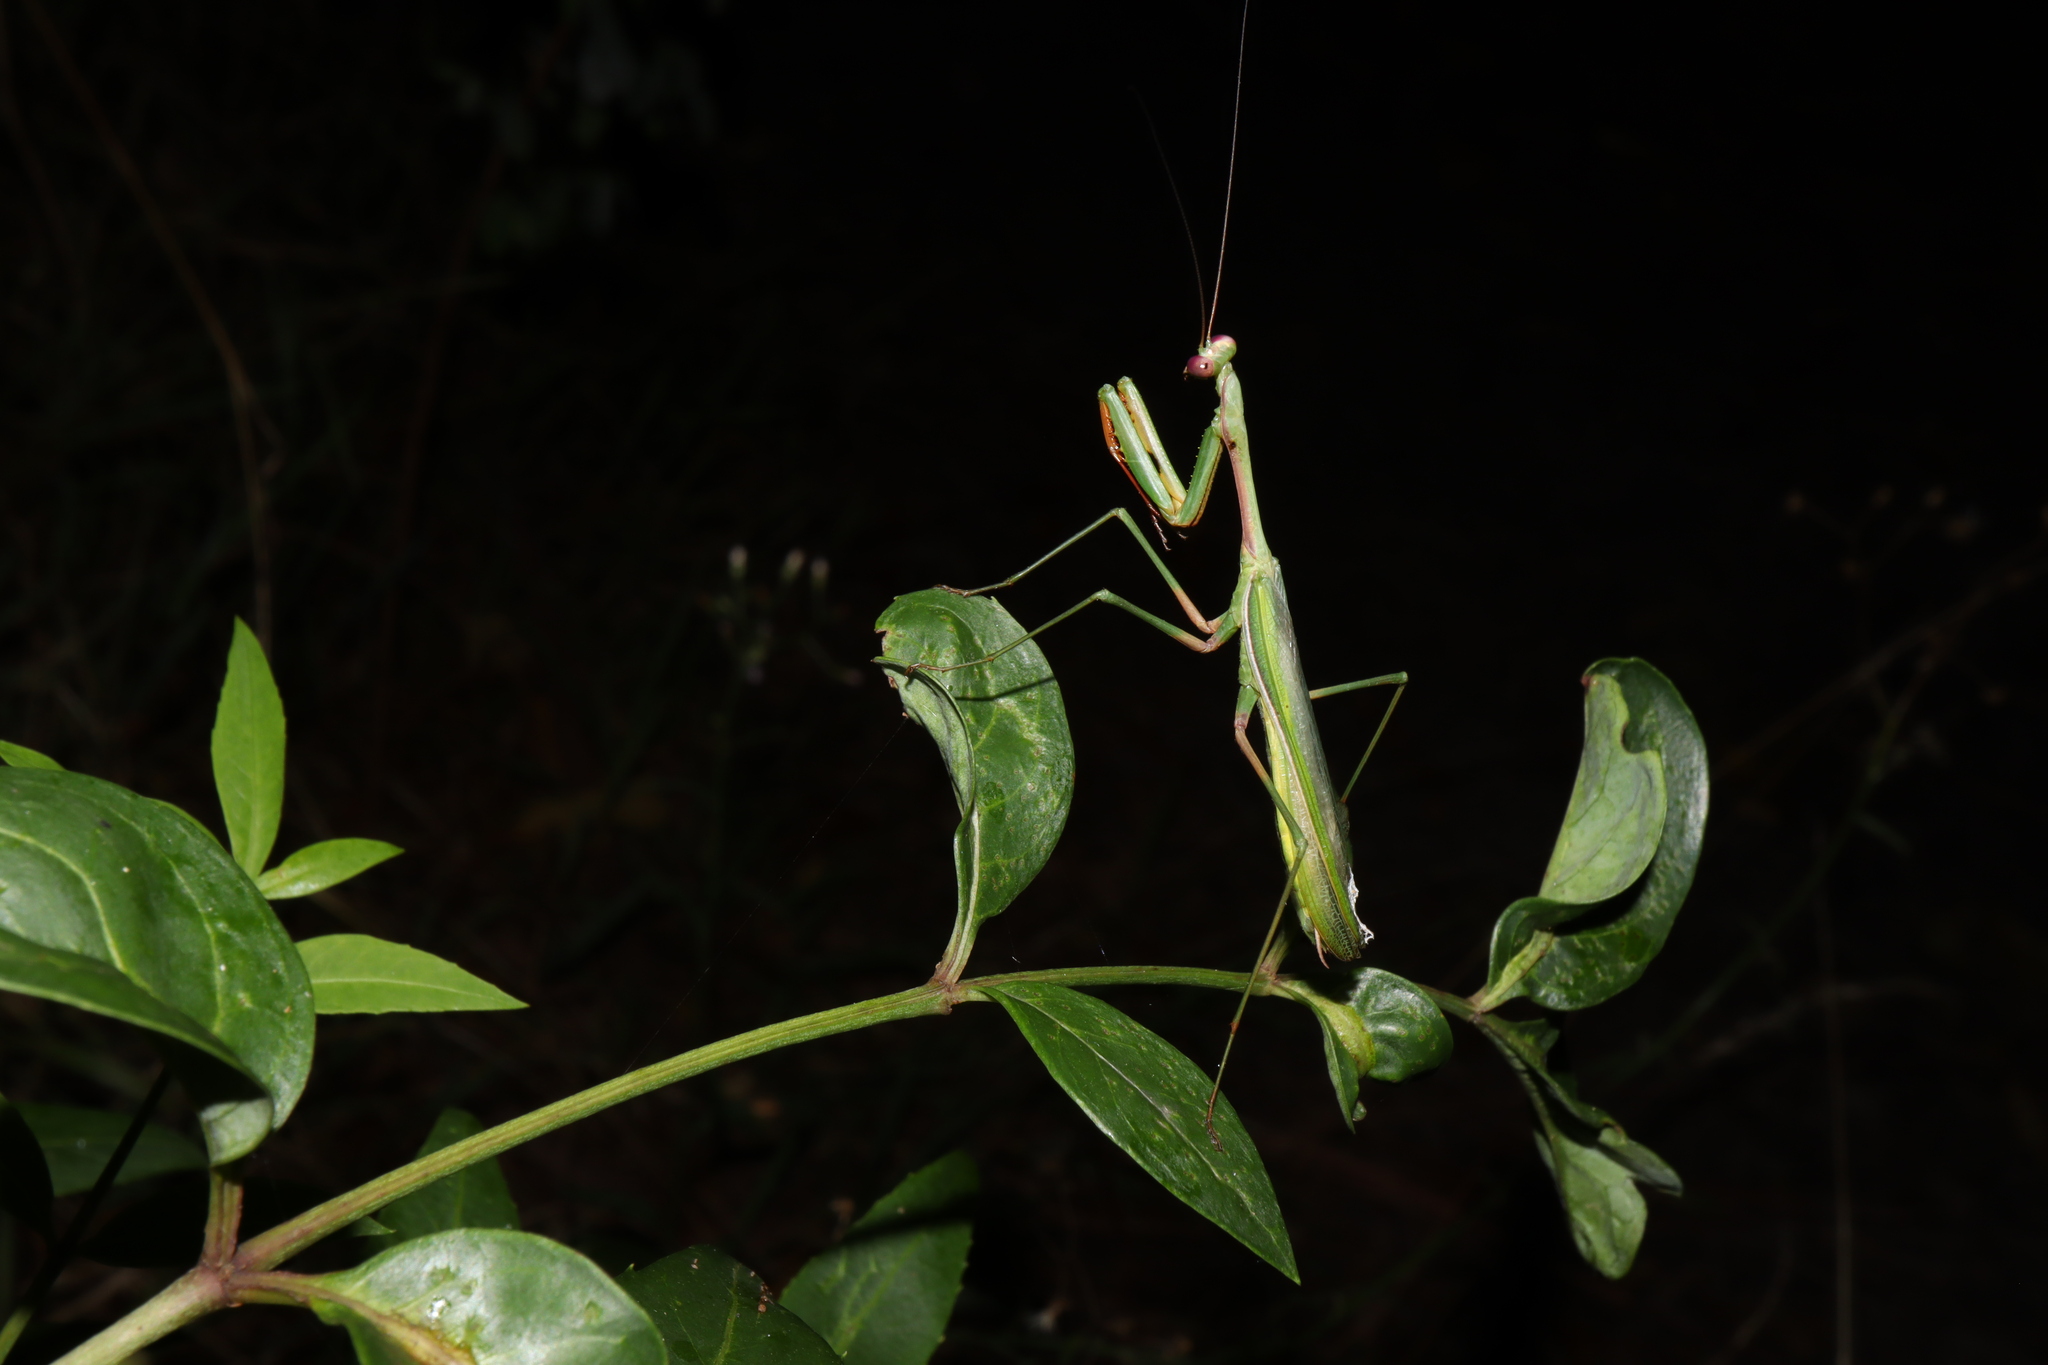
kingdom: Animalia
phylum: Arthropoda
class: Insecta
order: Mantodea
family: Mantidae
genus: Pseudomantis
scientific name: Pseudomantis albofimbriata
